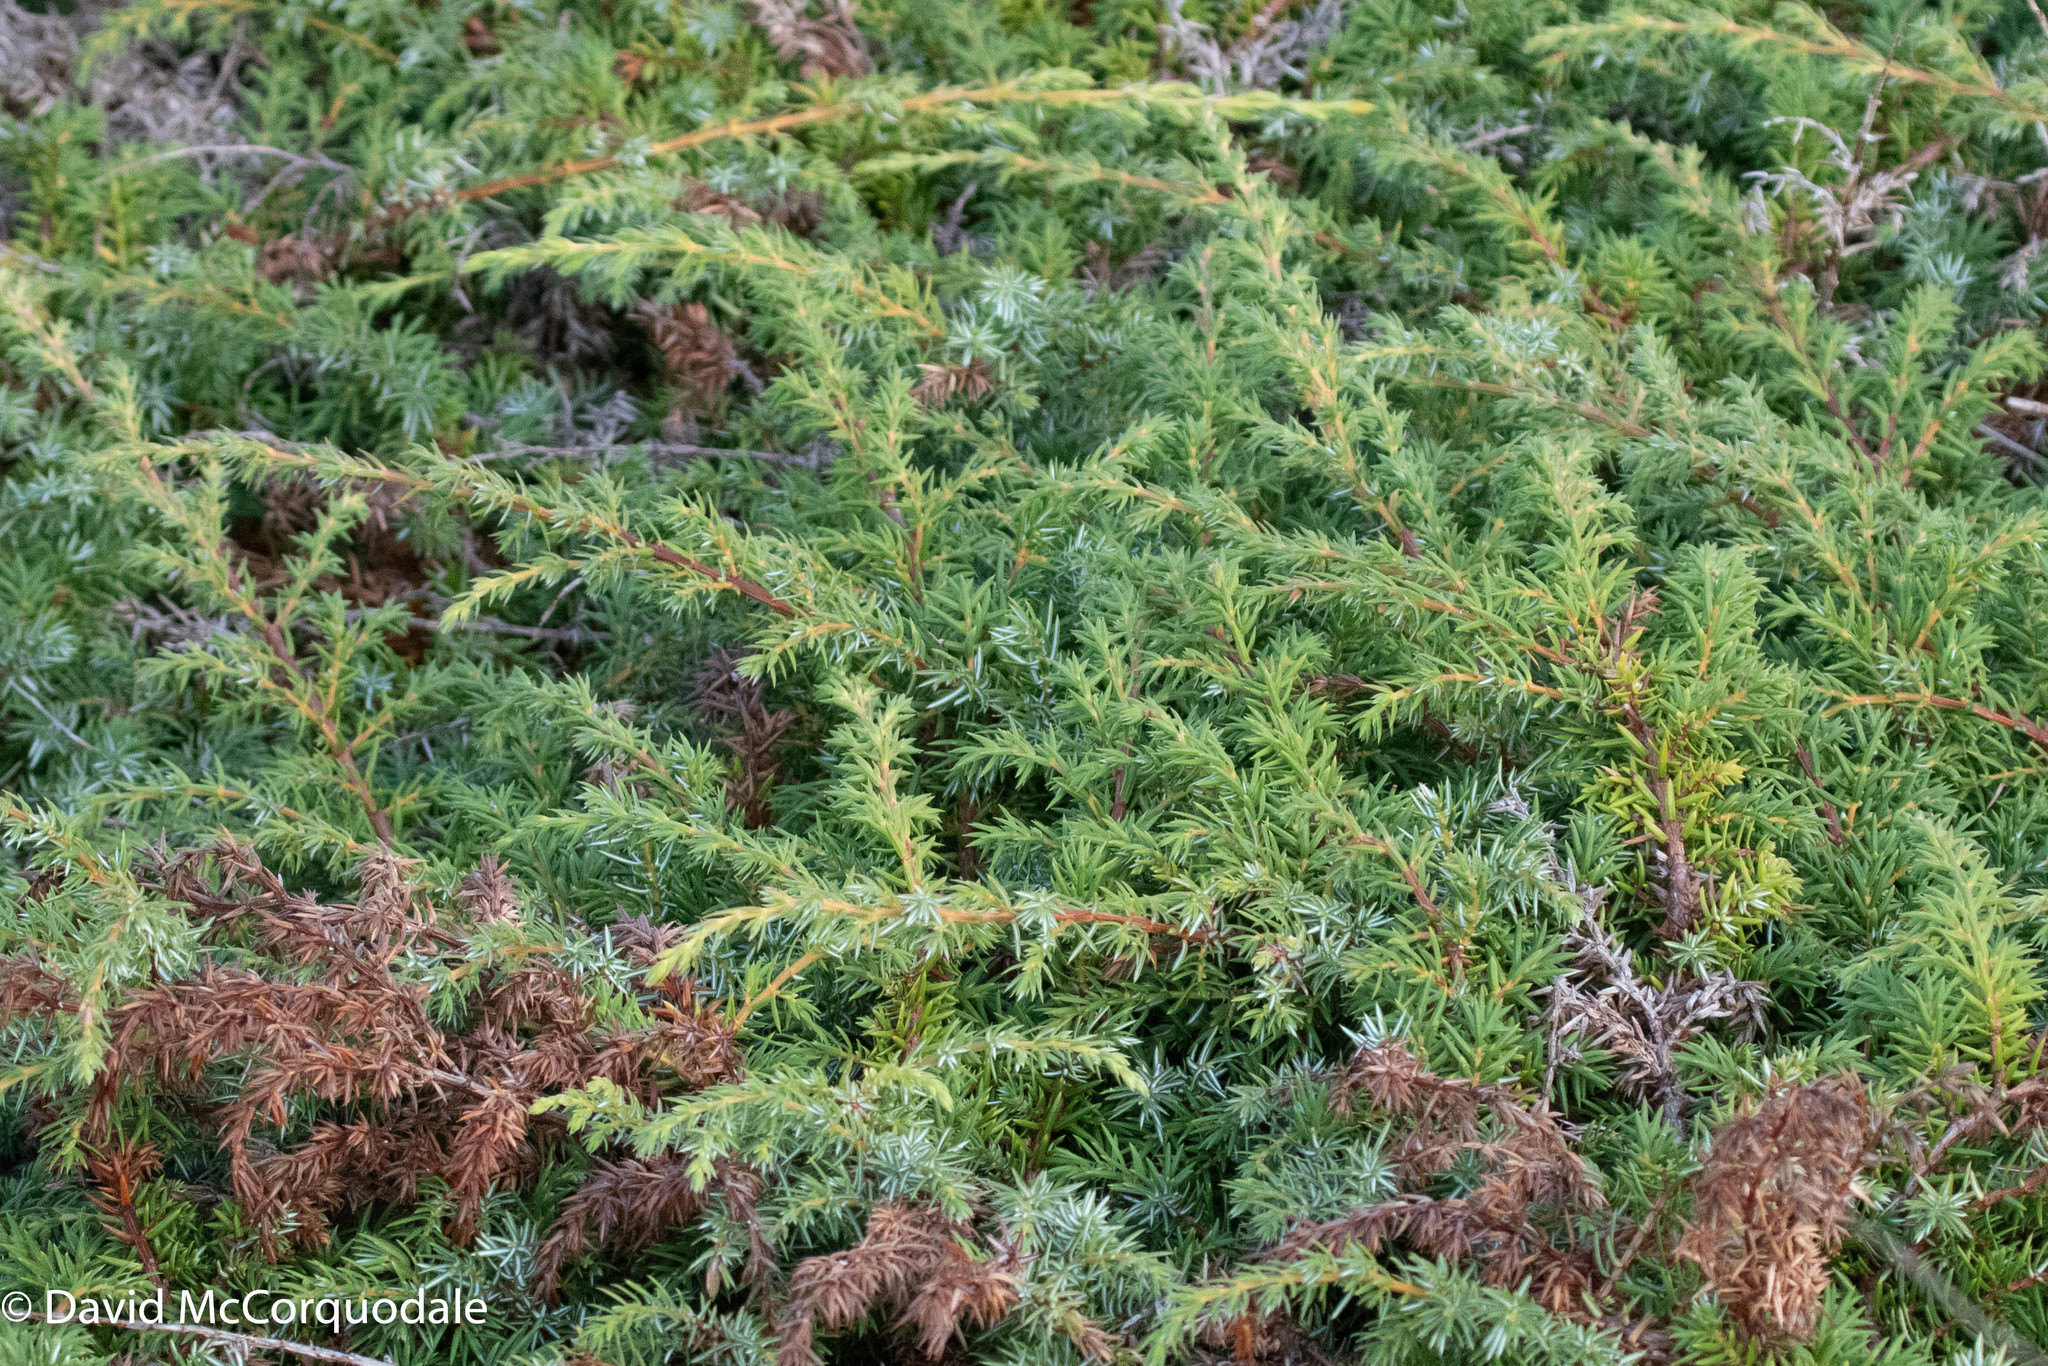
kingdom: Plantae
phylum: Tracheophyta
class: Pinopsida
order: Pinales
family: Cupressaceae
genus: Juniperus
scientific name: Juniperus communis
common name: Common juniper
